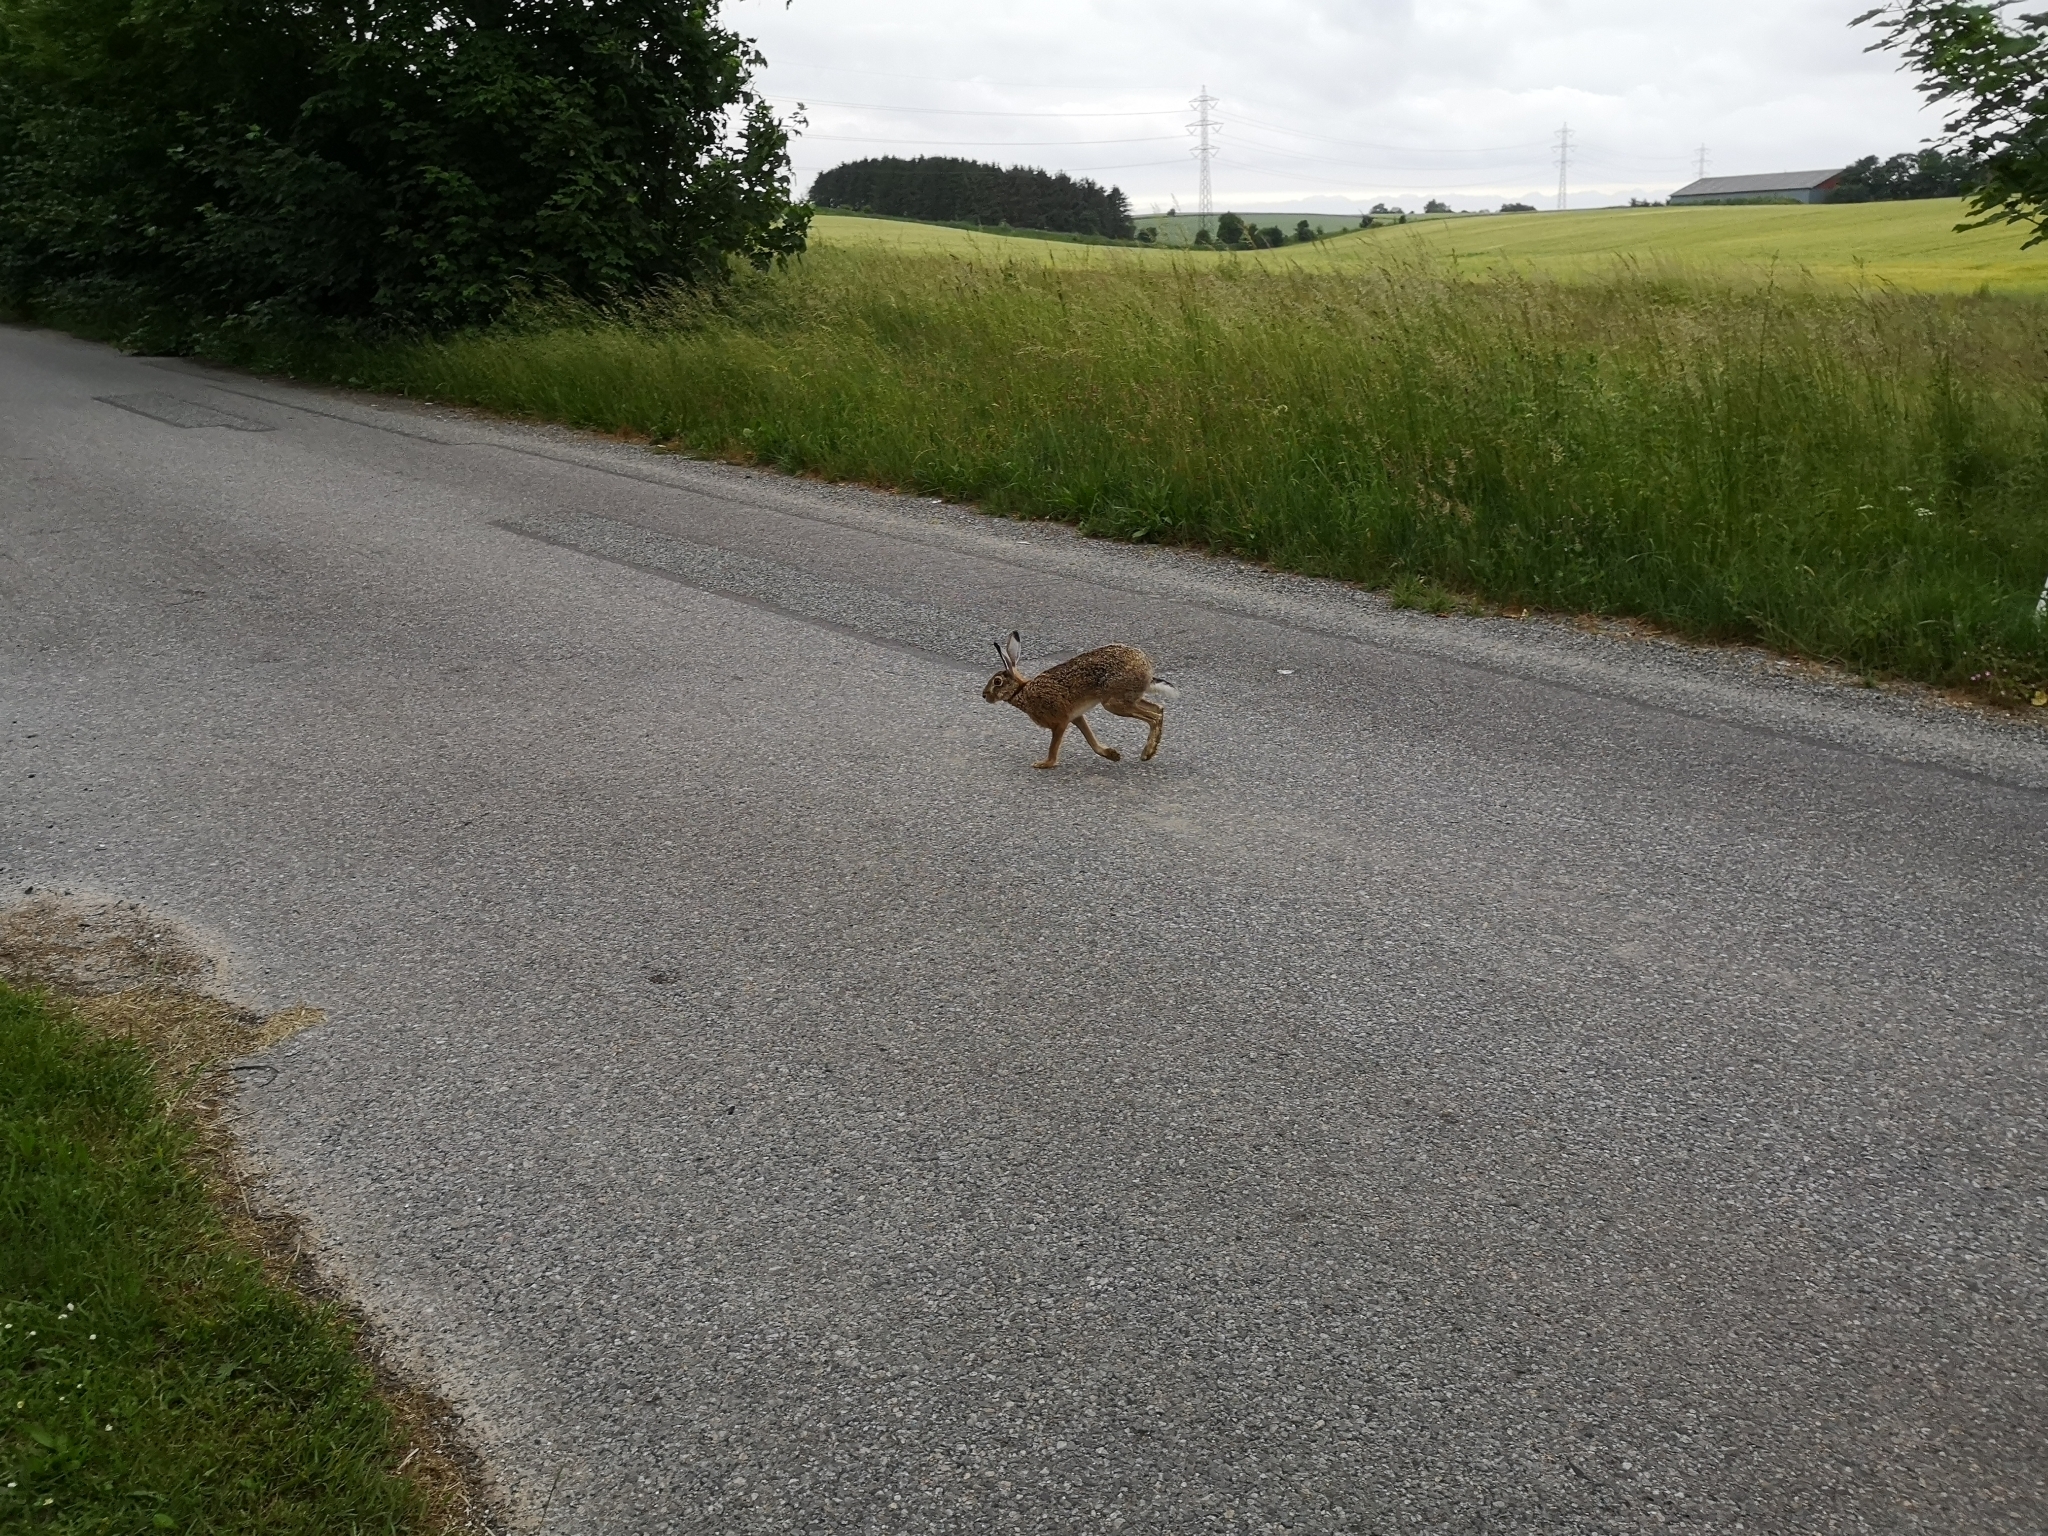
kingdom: Animalia
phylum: Chordata
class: Mammalia
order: Lagomorpha
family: Leporidae
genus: Lepus
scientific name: Lepus europaeus
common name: European hare
